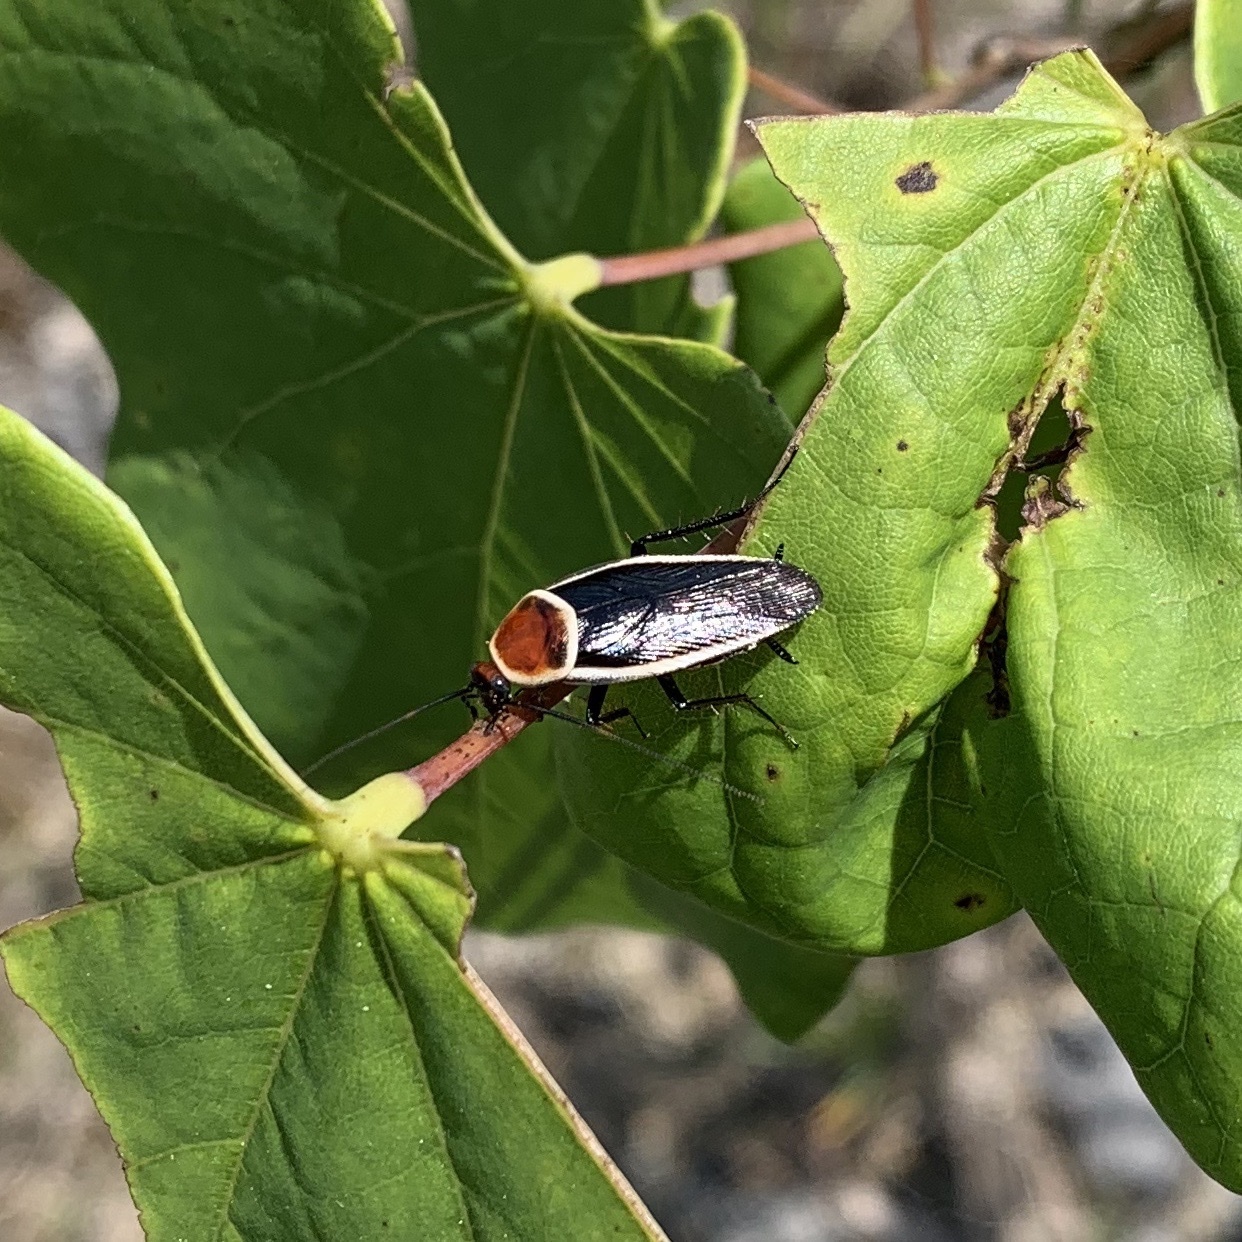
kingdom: Animalia
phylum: Arthropoda
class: Insecta
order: Blattodea
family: Ectobiidae
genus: Pseudomops
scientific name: Pseudomops septentrionalis
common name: Pale-bordered field cockroach
